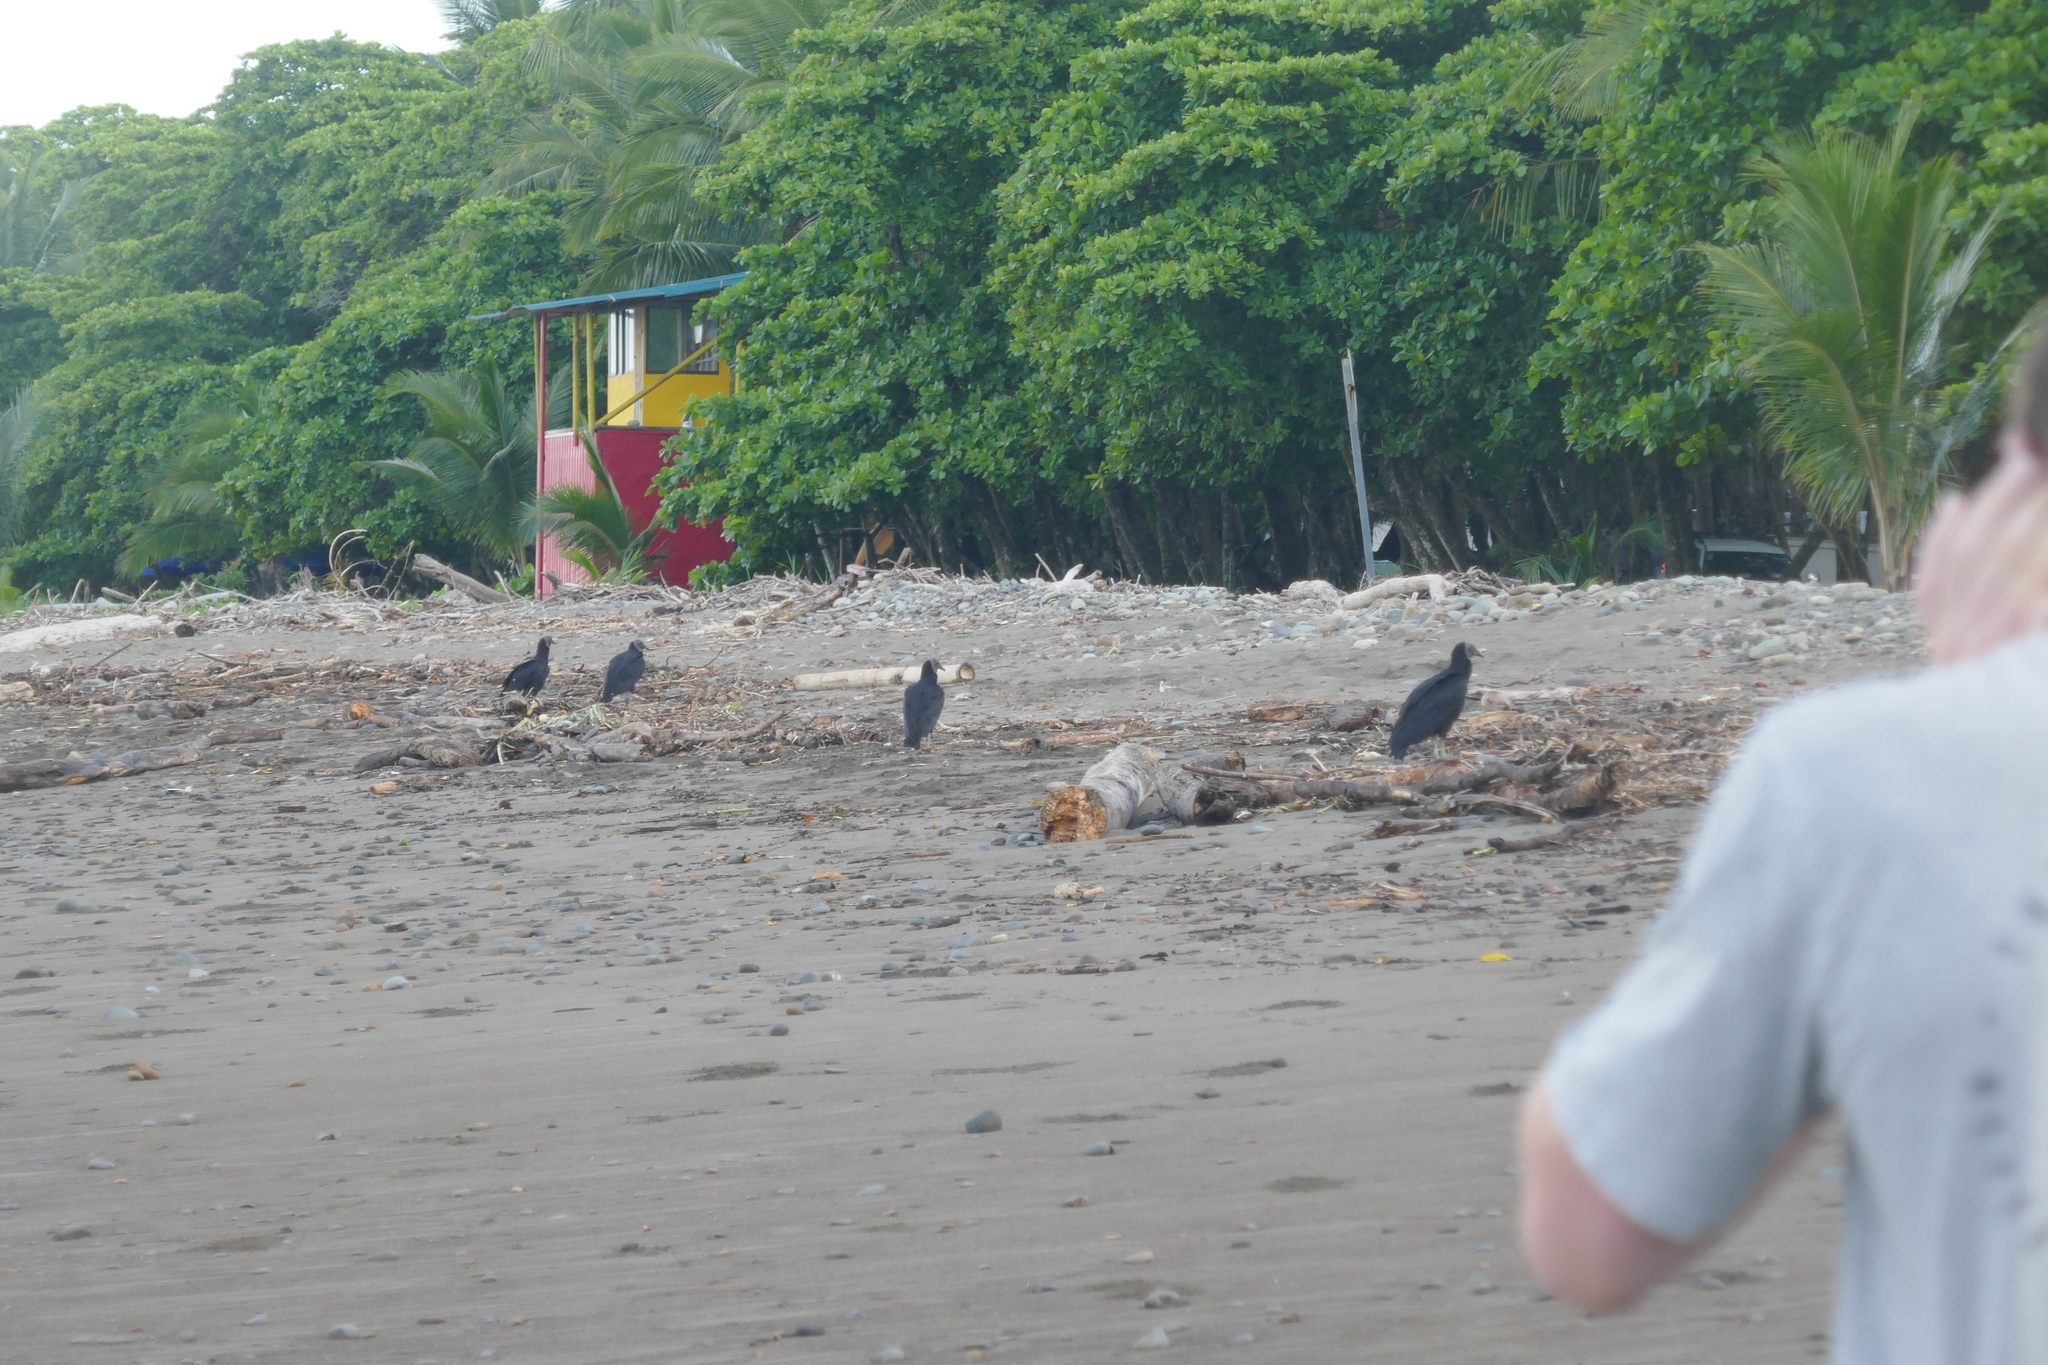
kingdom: Animalia
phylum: Chordata
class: Aves
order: Accipitriformes
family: Cathartidae
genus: Coragyps
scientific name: Coragyps atratus
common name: Black vulture
